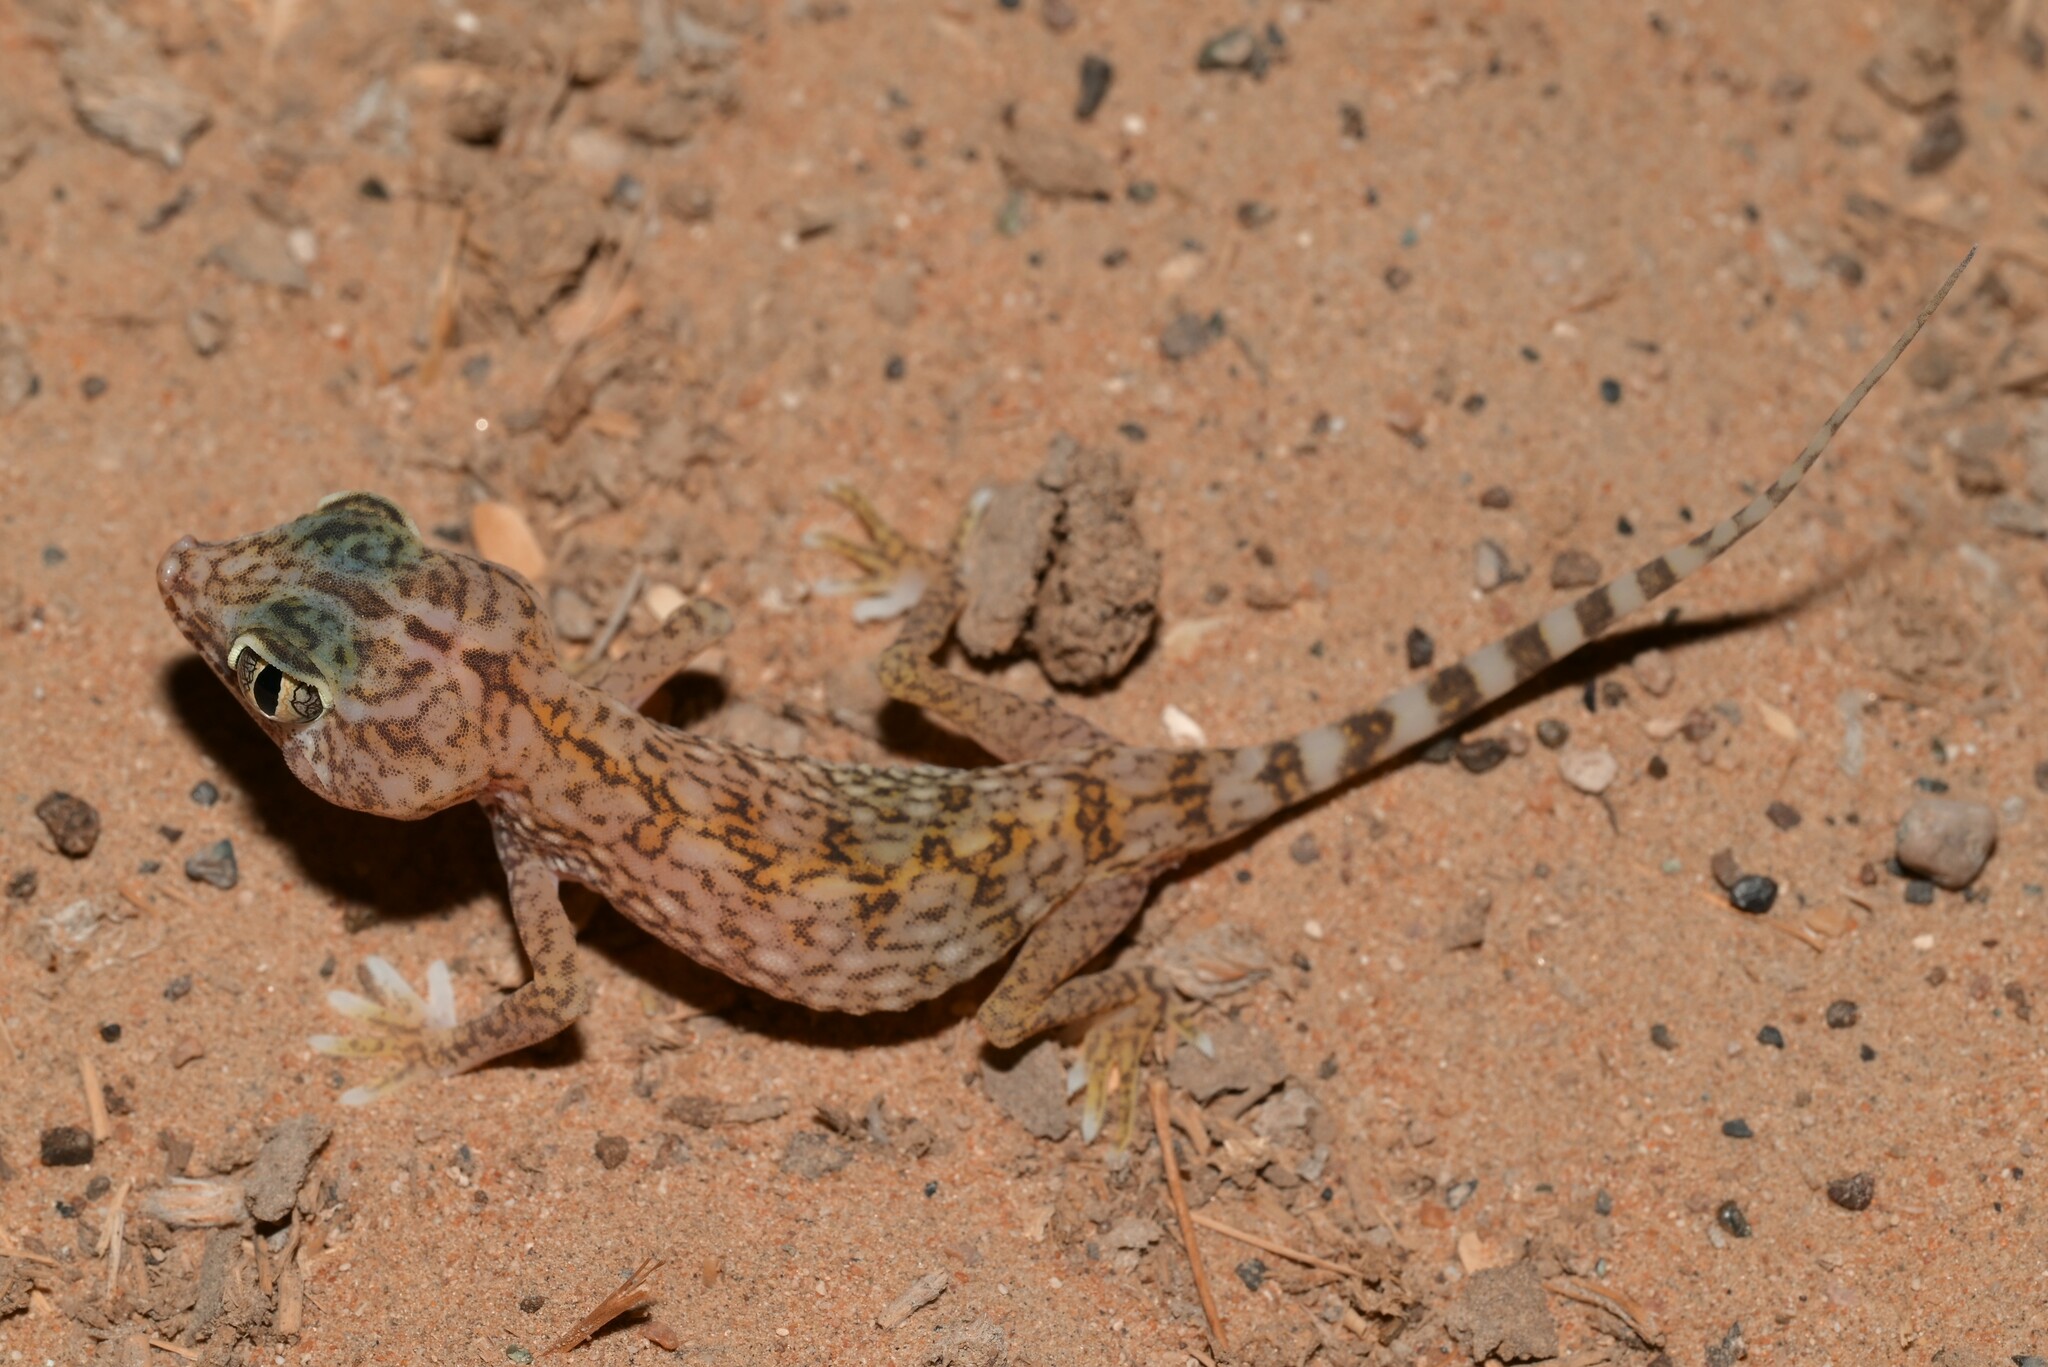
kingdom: Animalia
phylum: Chordata
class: Squamata
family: Gekkonidae
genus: Stenodactylus
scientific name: Stenodactylus doriae
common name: Dune sand gecko
